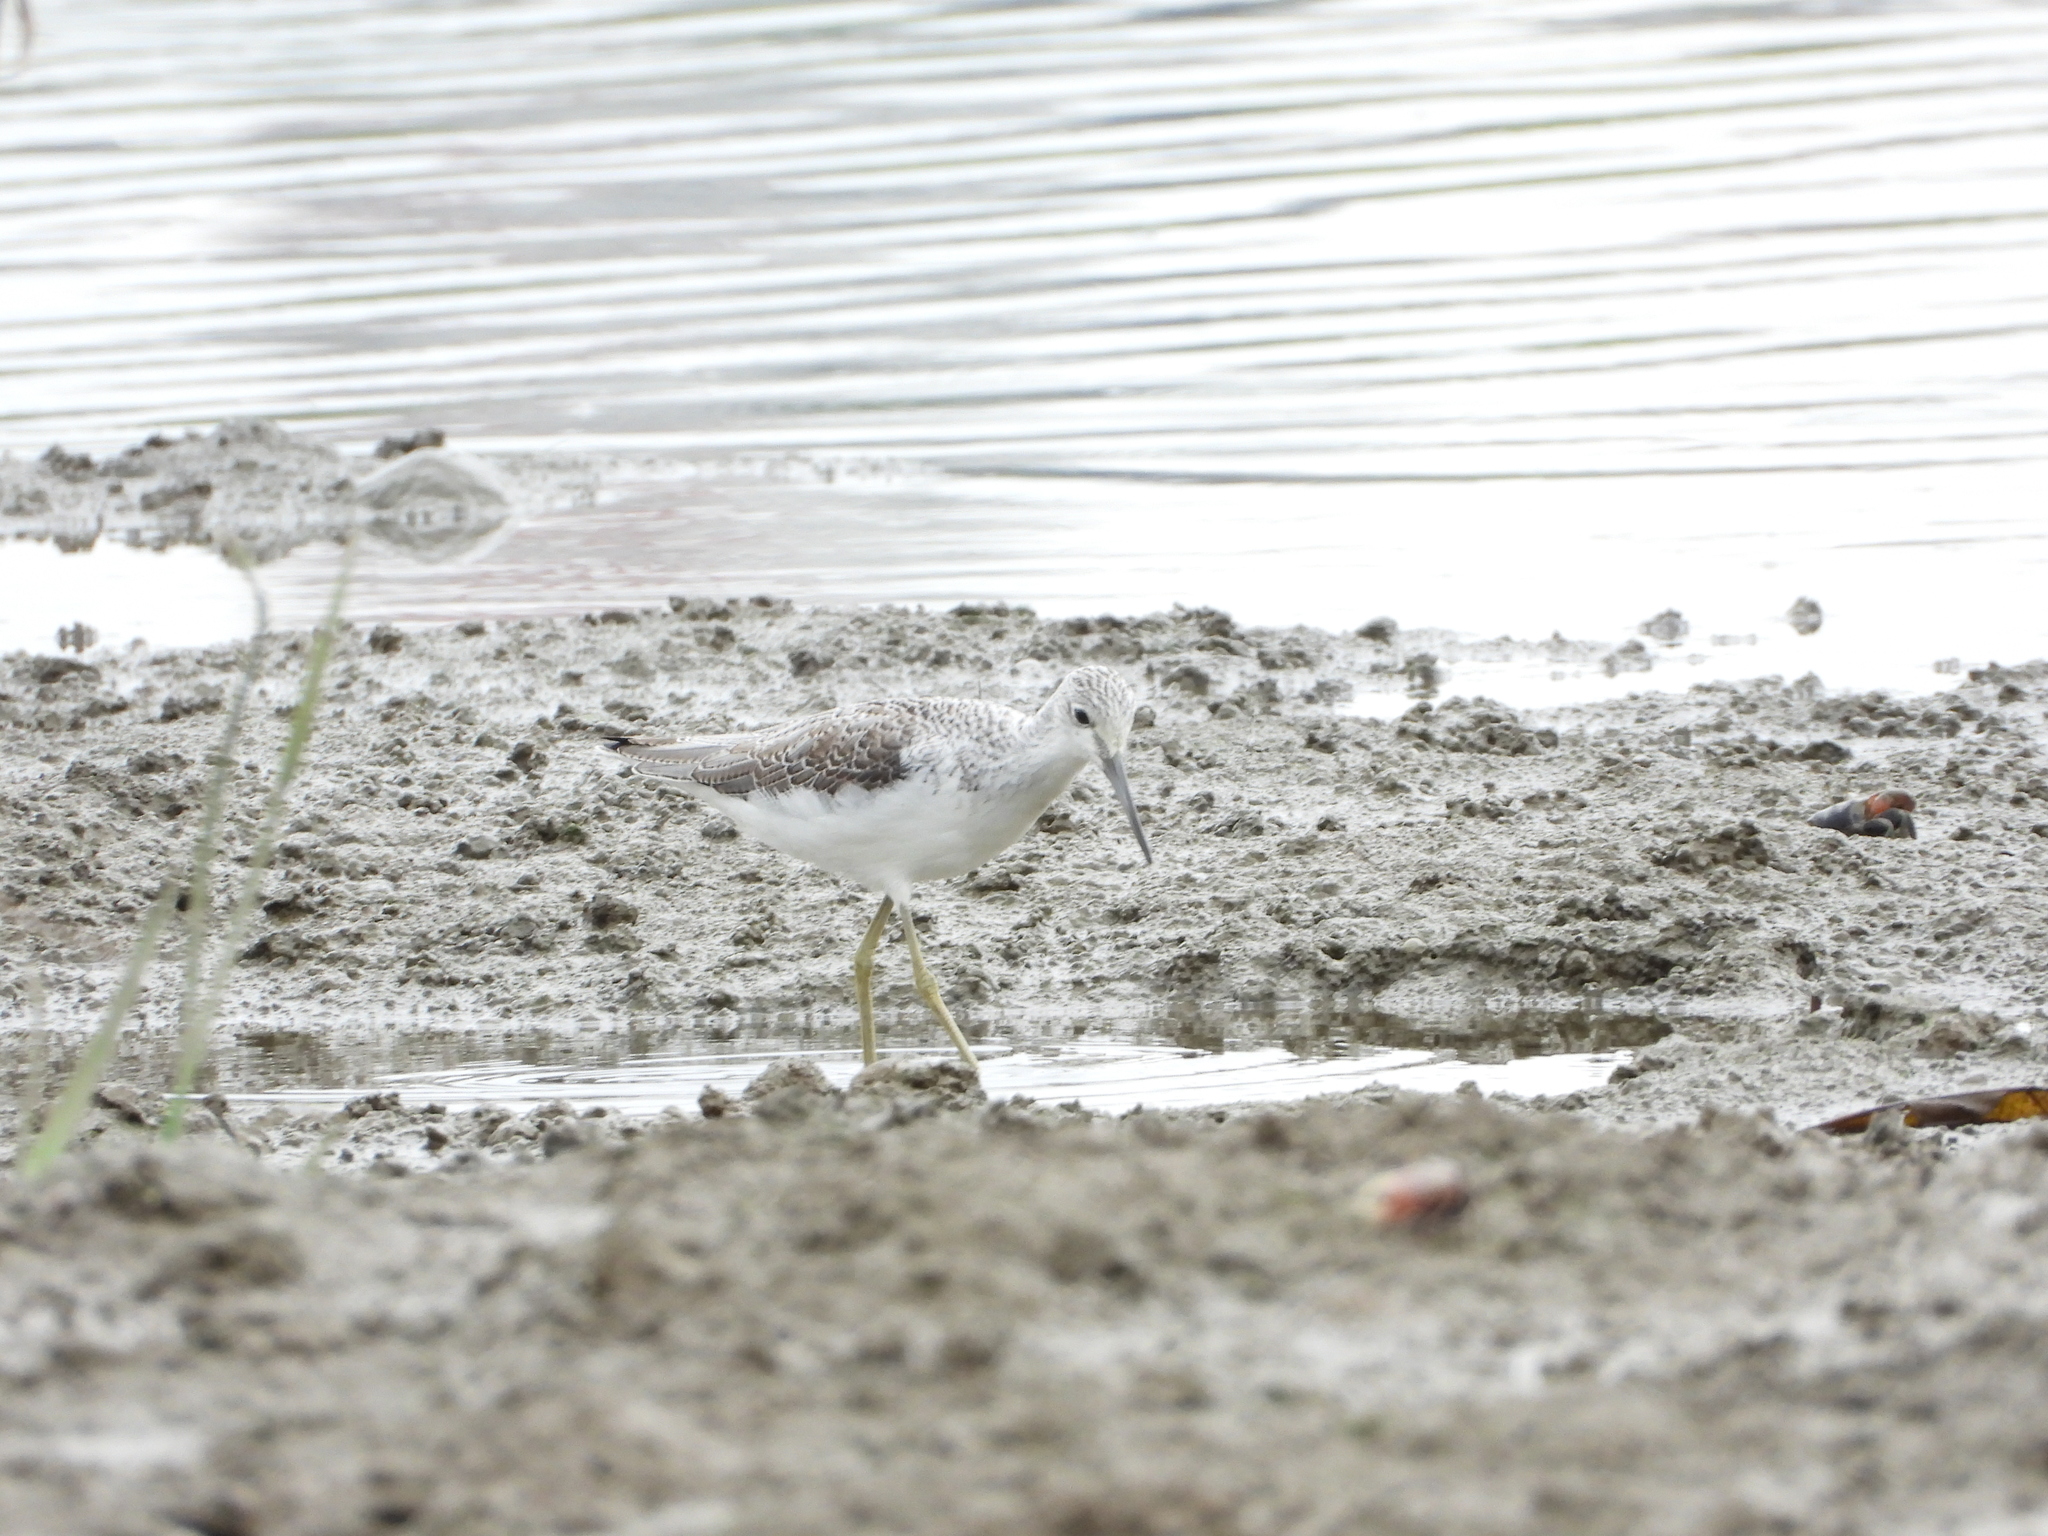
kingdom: Animalia
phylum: Chordata
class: Aves
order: Charadriiformes
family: Scolopacidae
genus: Tringa
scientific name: Tringa nebularia
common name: Common greenshank
